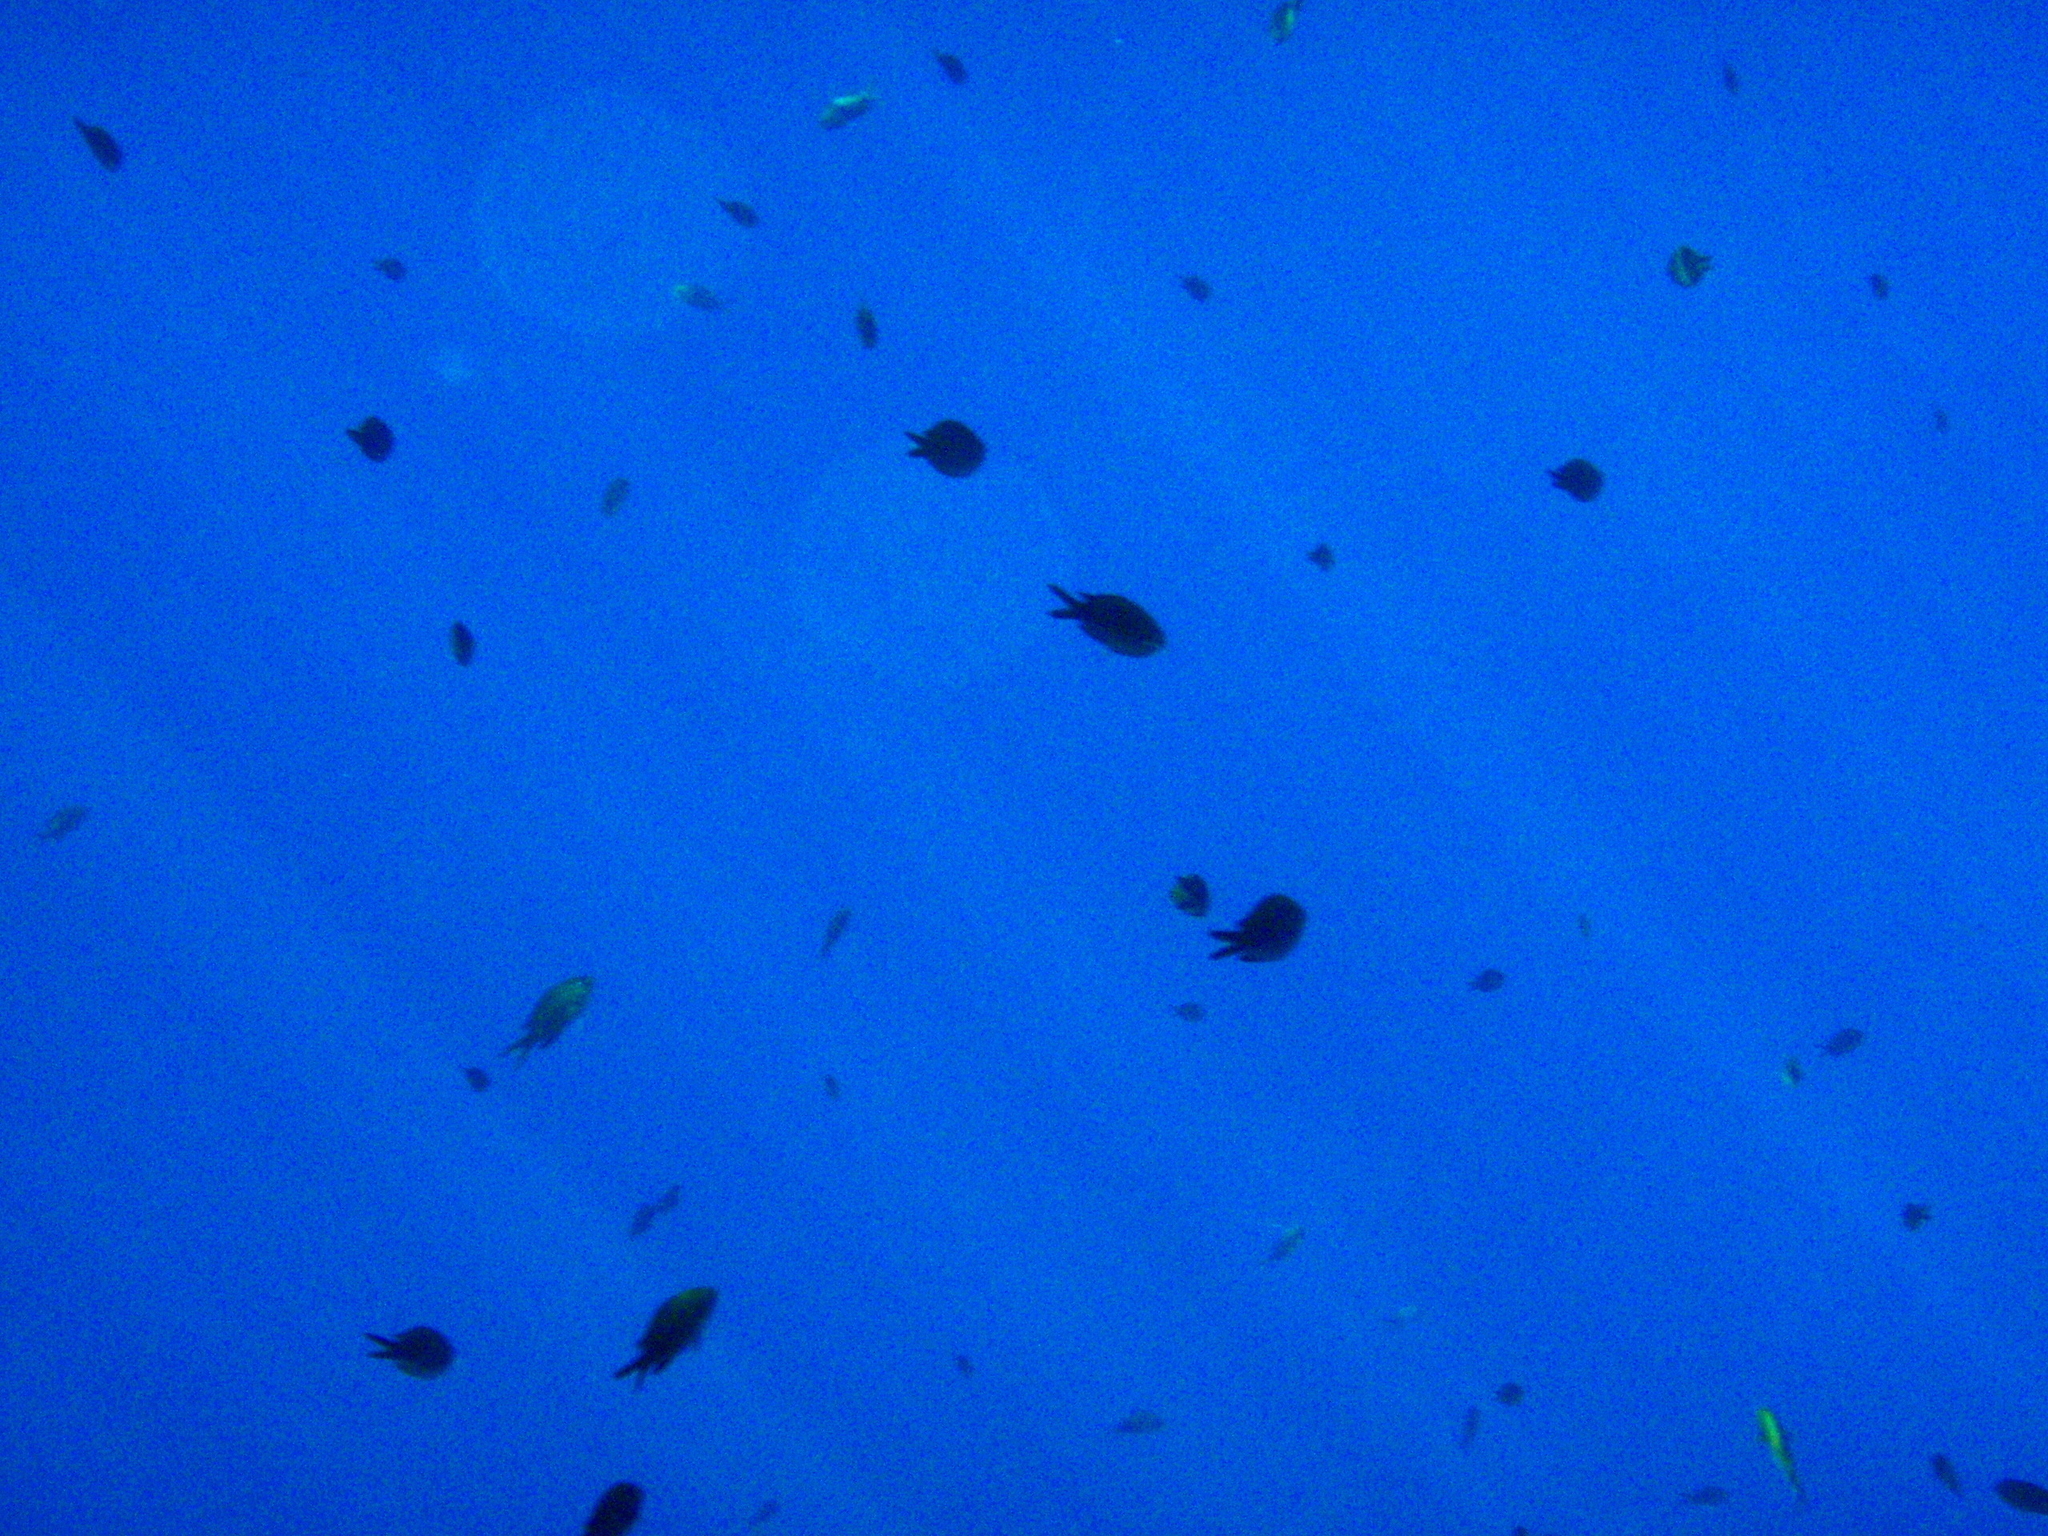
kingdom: Animalia
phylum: Chordata
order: Perciformes
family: Pomacentridae
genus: Chromis
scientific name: Chromis chromis
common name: Damselfish
